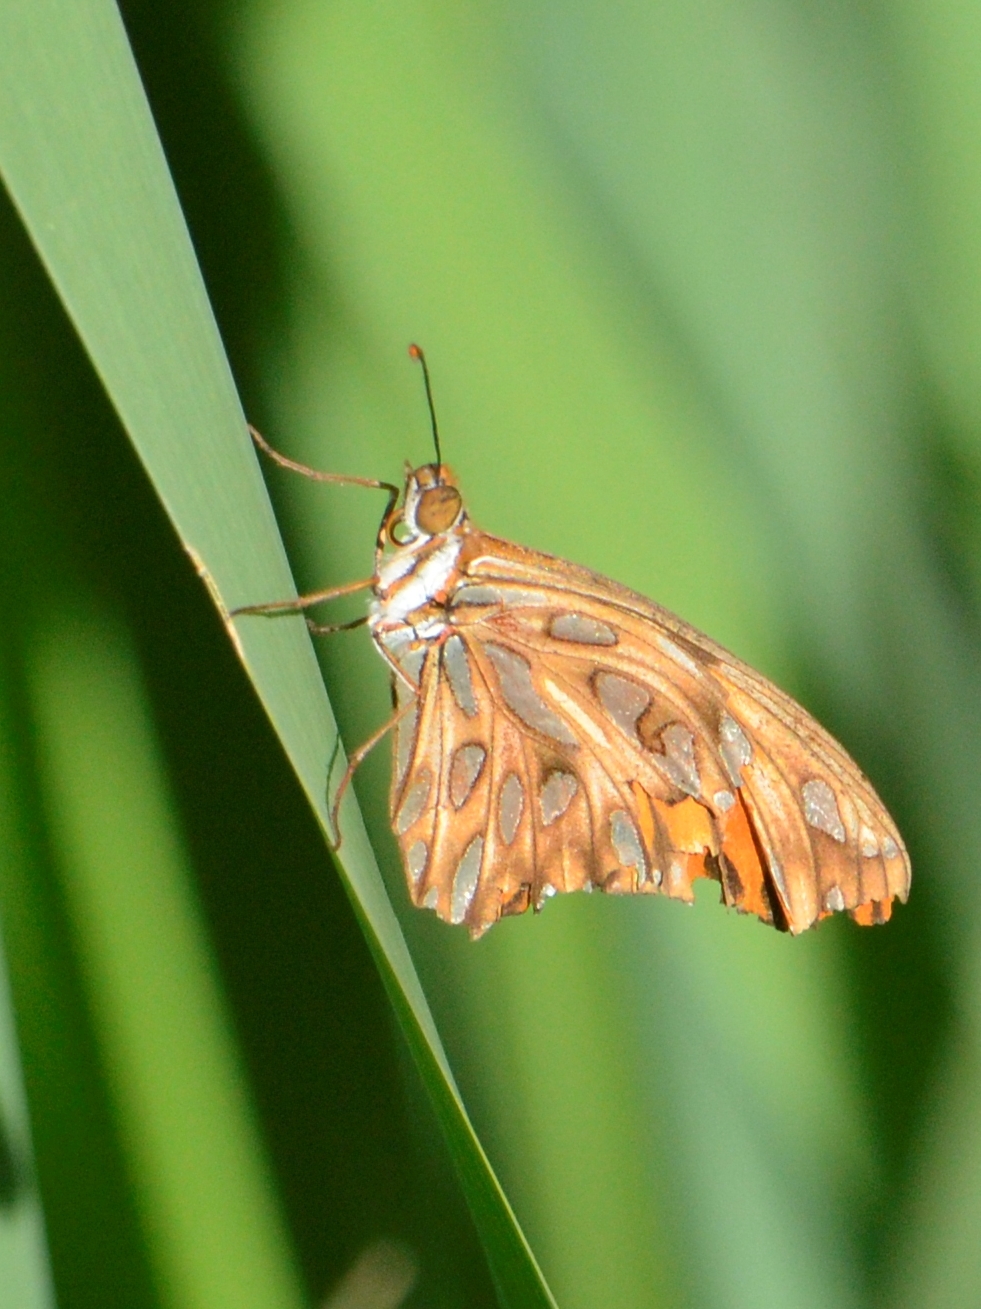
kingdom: Animalia
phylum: Arthropoda
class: Insecta
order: Lepidoptera
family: Nymphalidae
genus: Dione
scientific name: Dione vanillae
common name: Gulf fritillary
